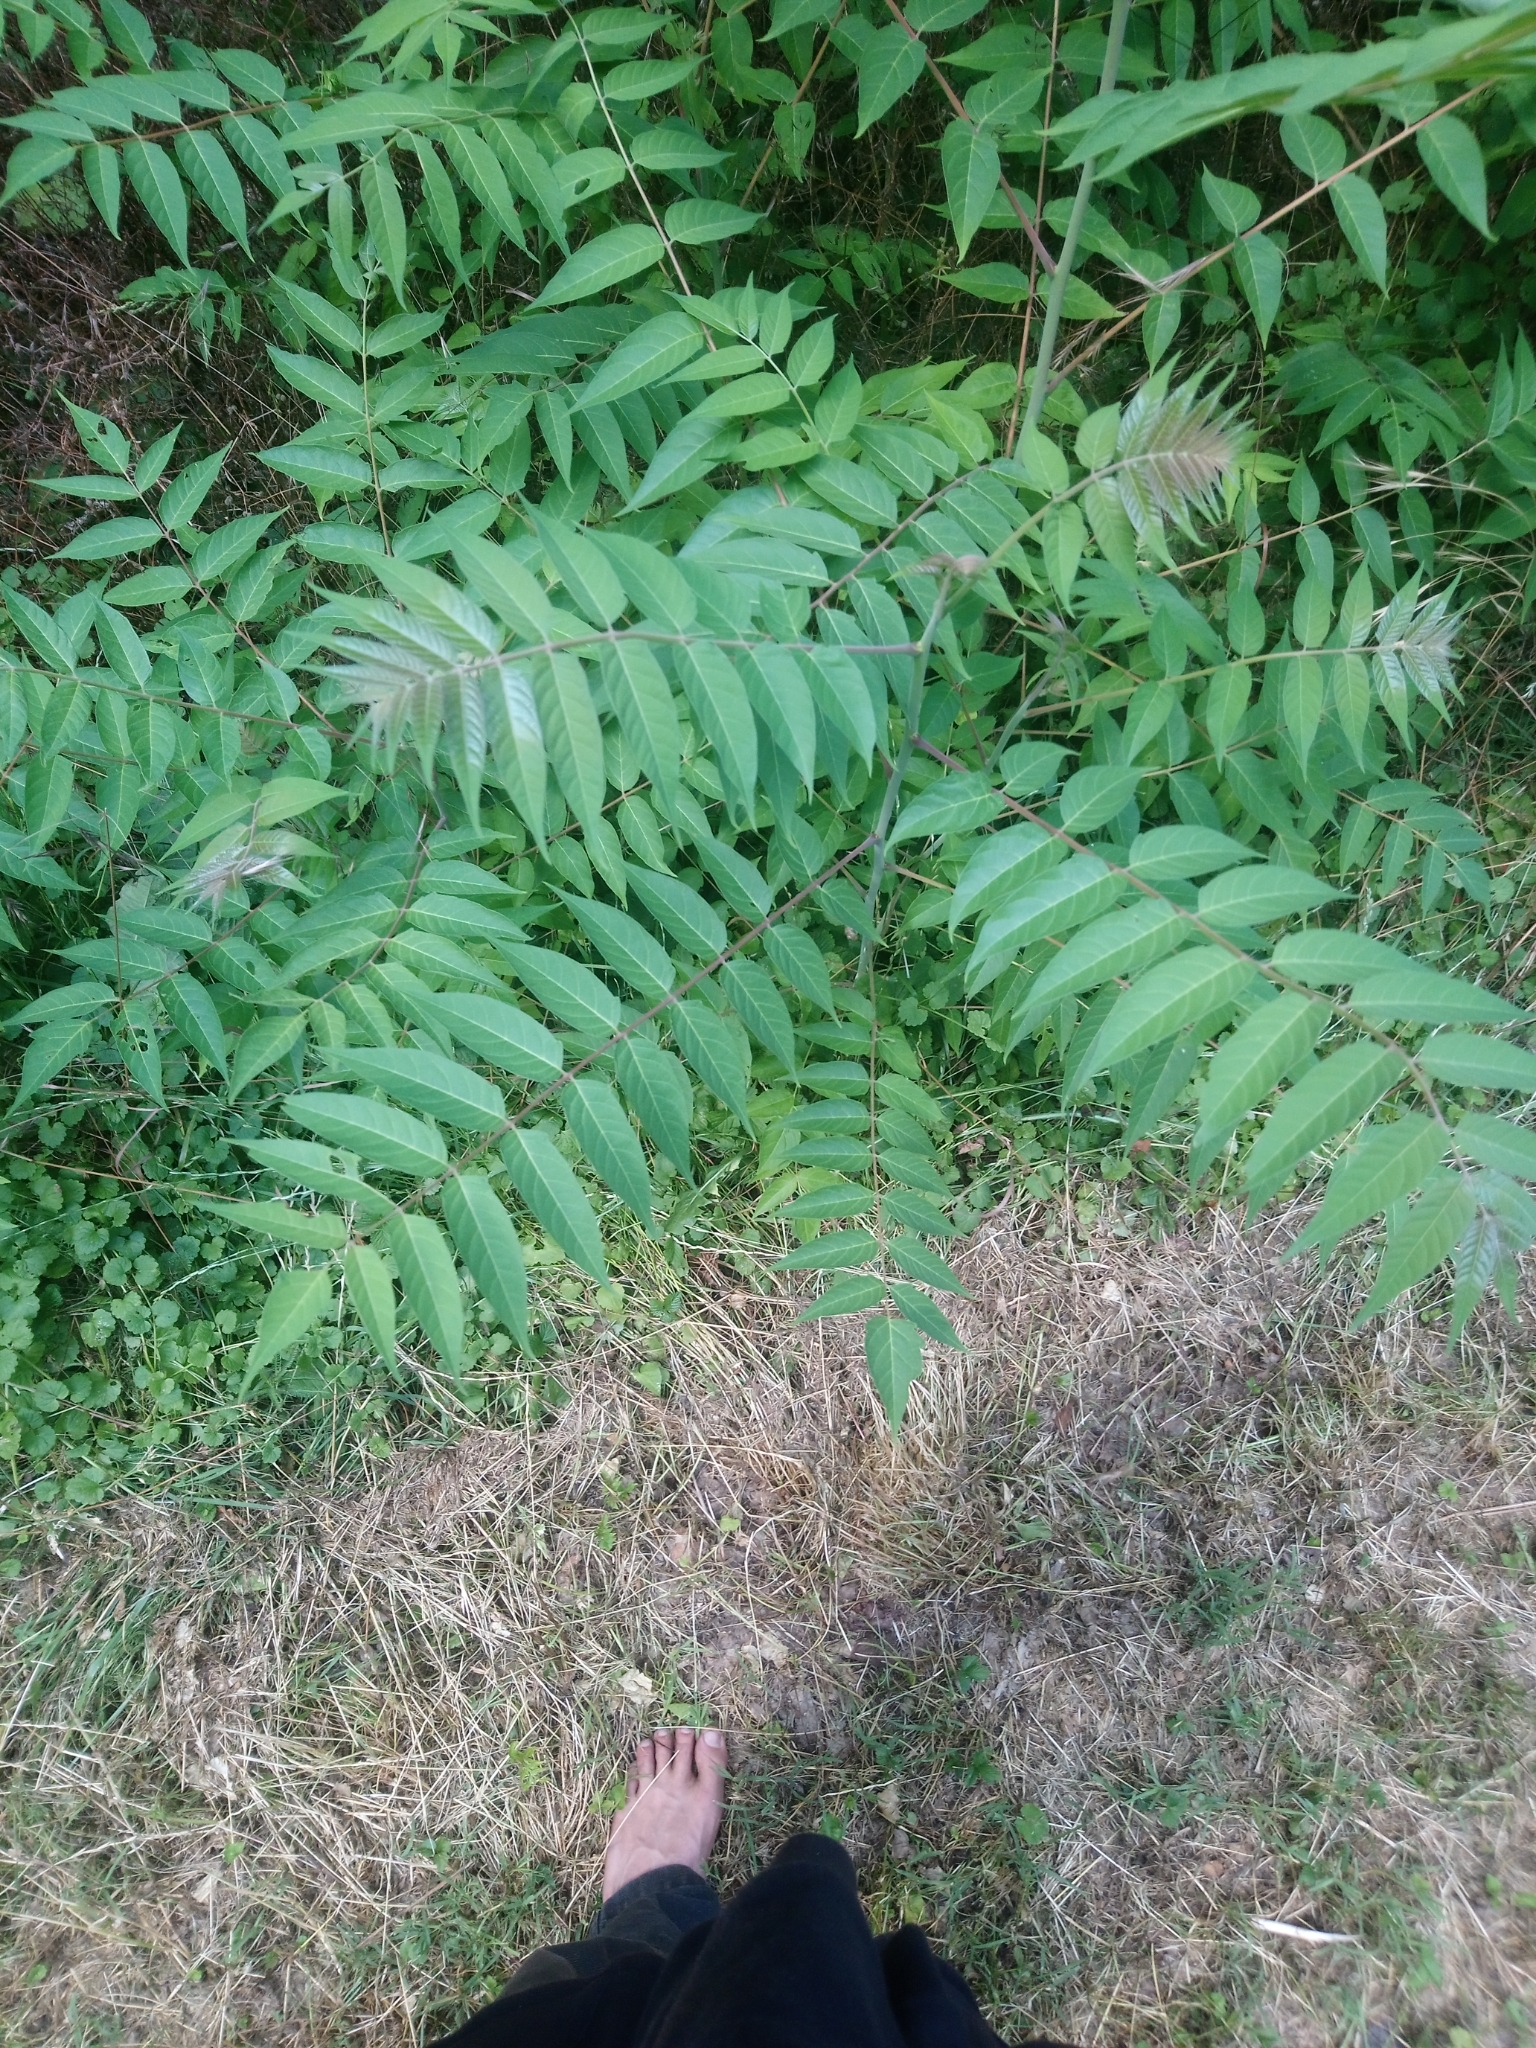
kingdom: Plantae
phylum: Tracheophyta
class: Magnoliopsida
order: Sapindales
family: Simaroubaceae
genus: Ailanthus
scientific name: Ailanthus altissima
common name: Tree-of-heaven
